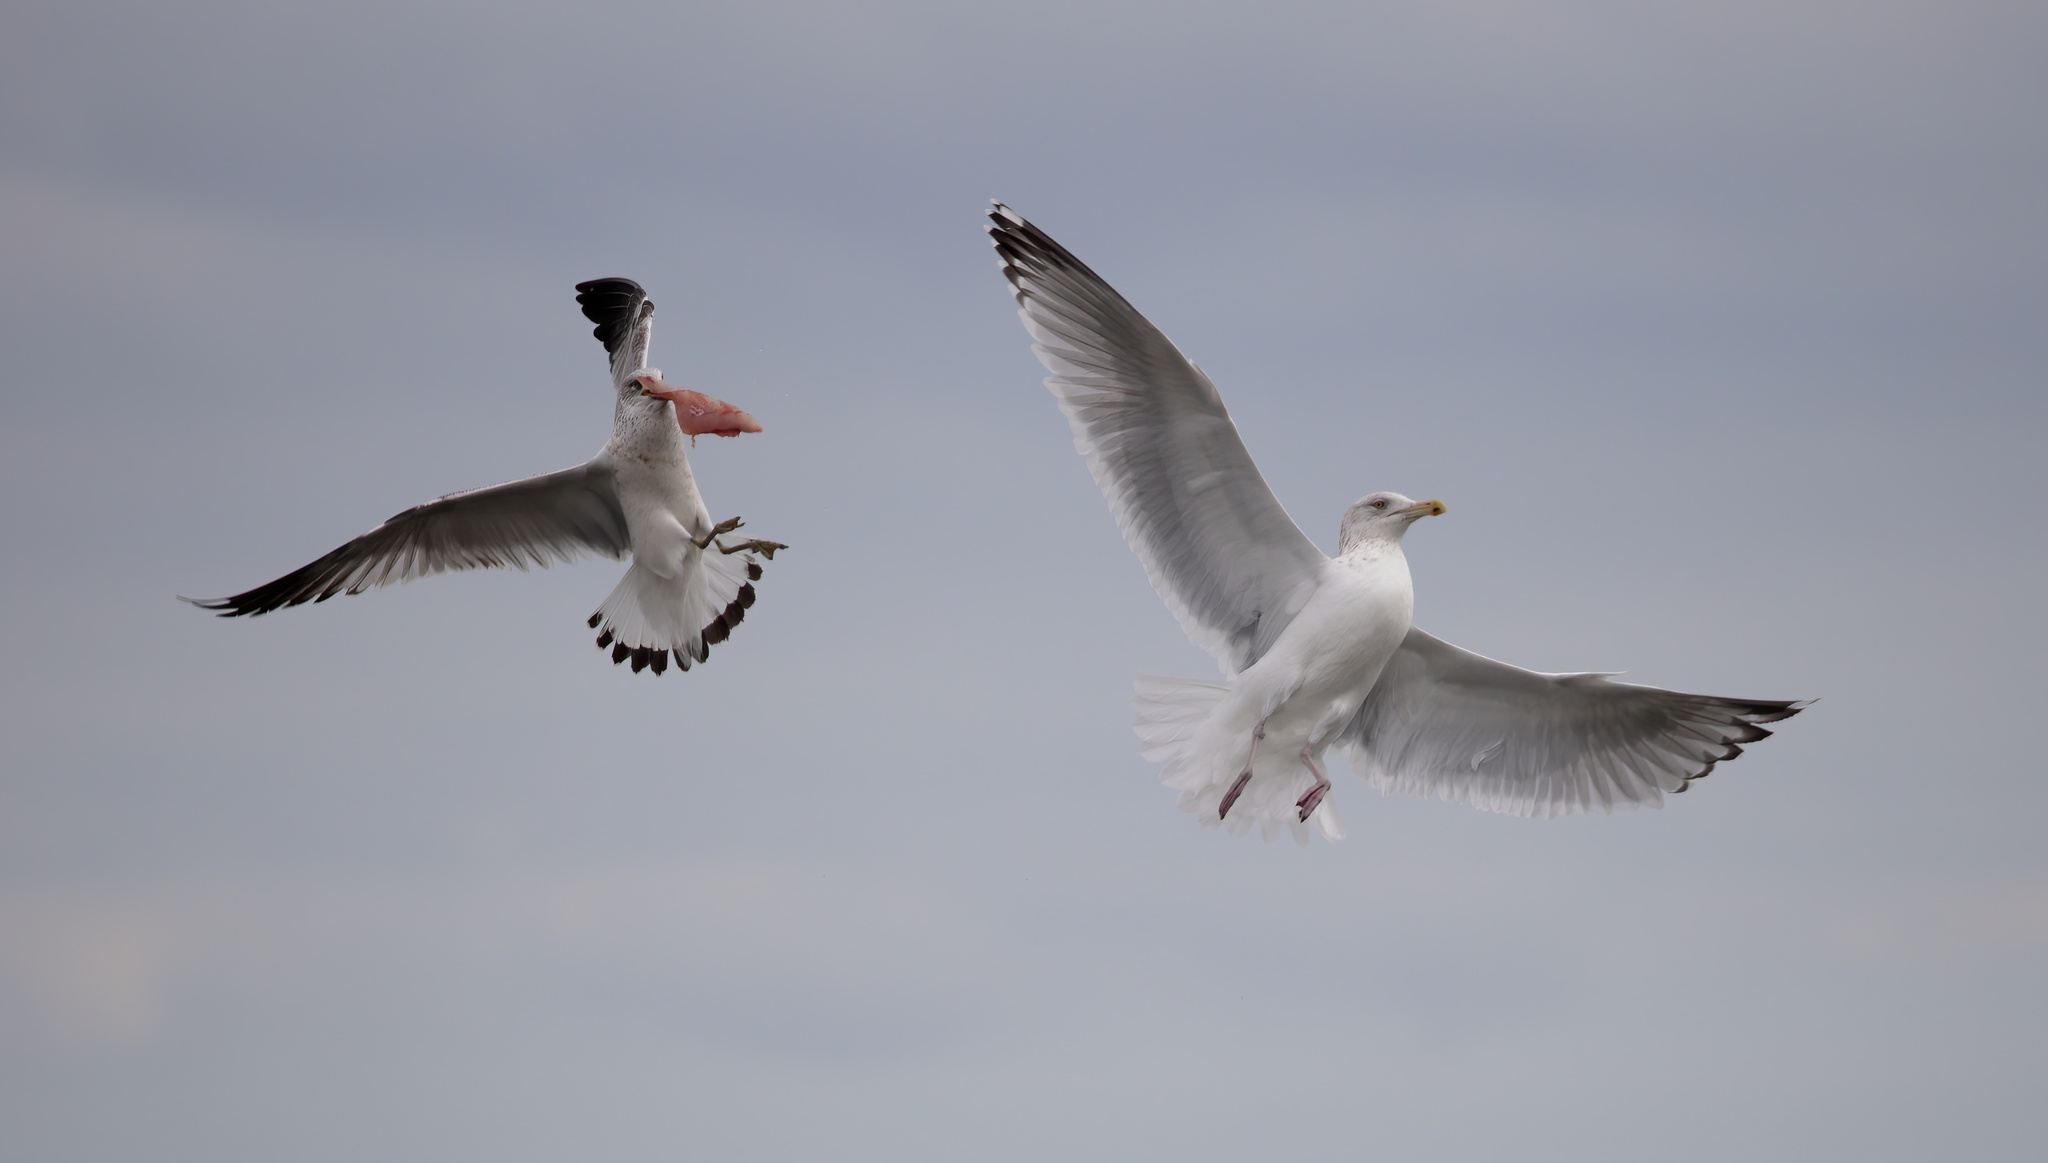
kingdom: Animalia
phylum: Chordata
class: Aves
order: Charadriiformes
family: Laridae
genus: Larus
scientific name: Larus delawarensis
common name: Ring-billed gull
